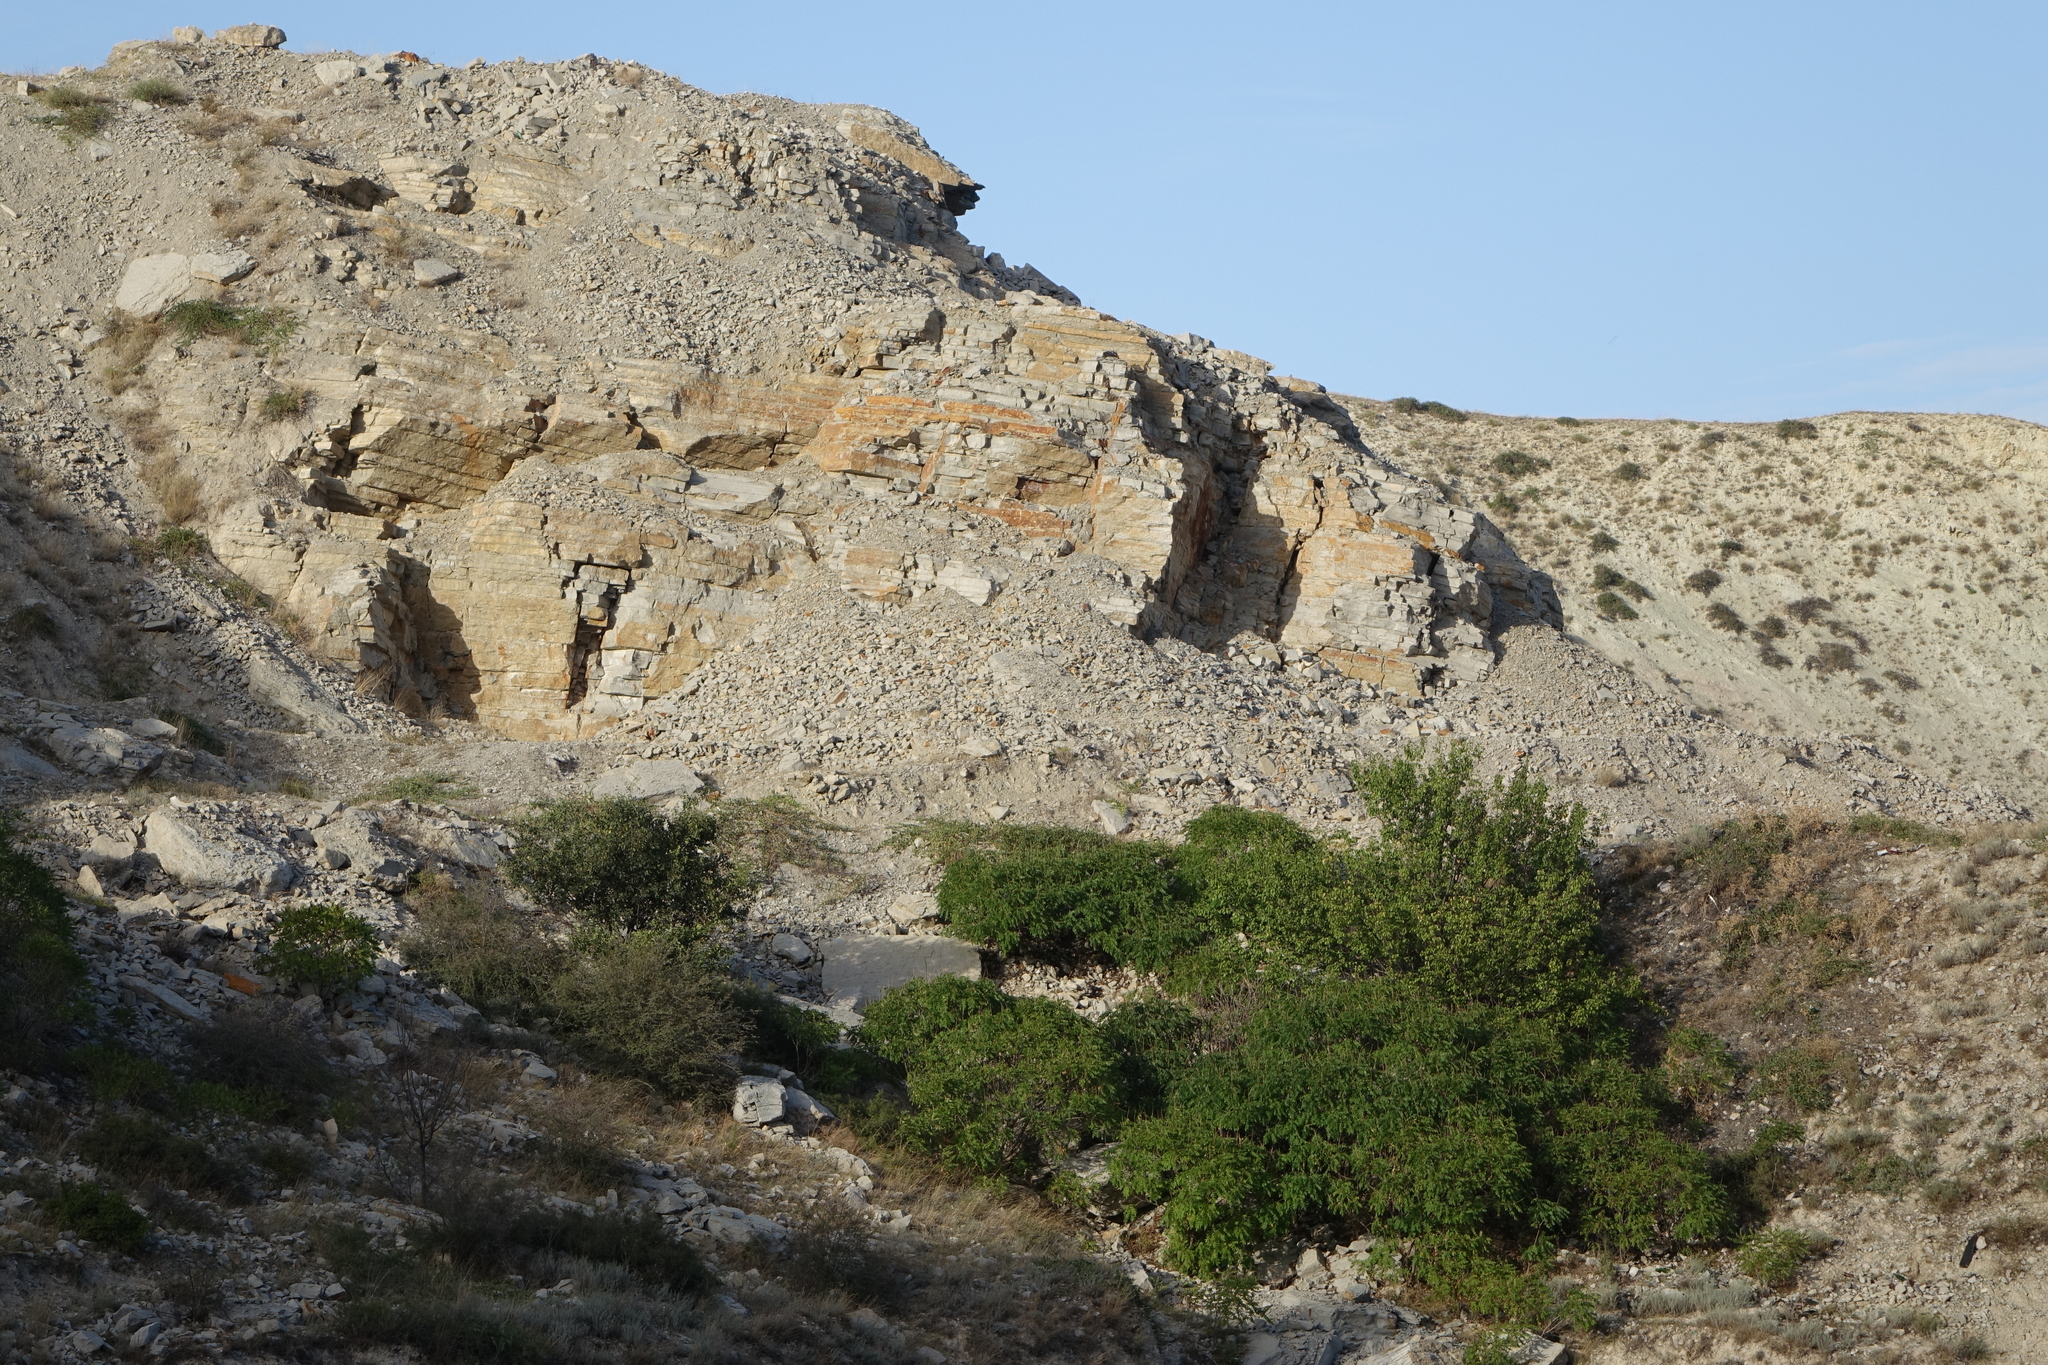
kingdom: Plantae
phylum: Tracheophyta
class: Magnoliopsida
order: Fabales
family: Fabaceae
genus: Amorpha
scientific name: Amorpha fruticosa
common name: False indigo
